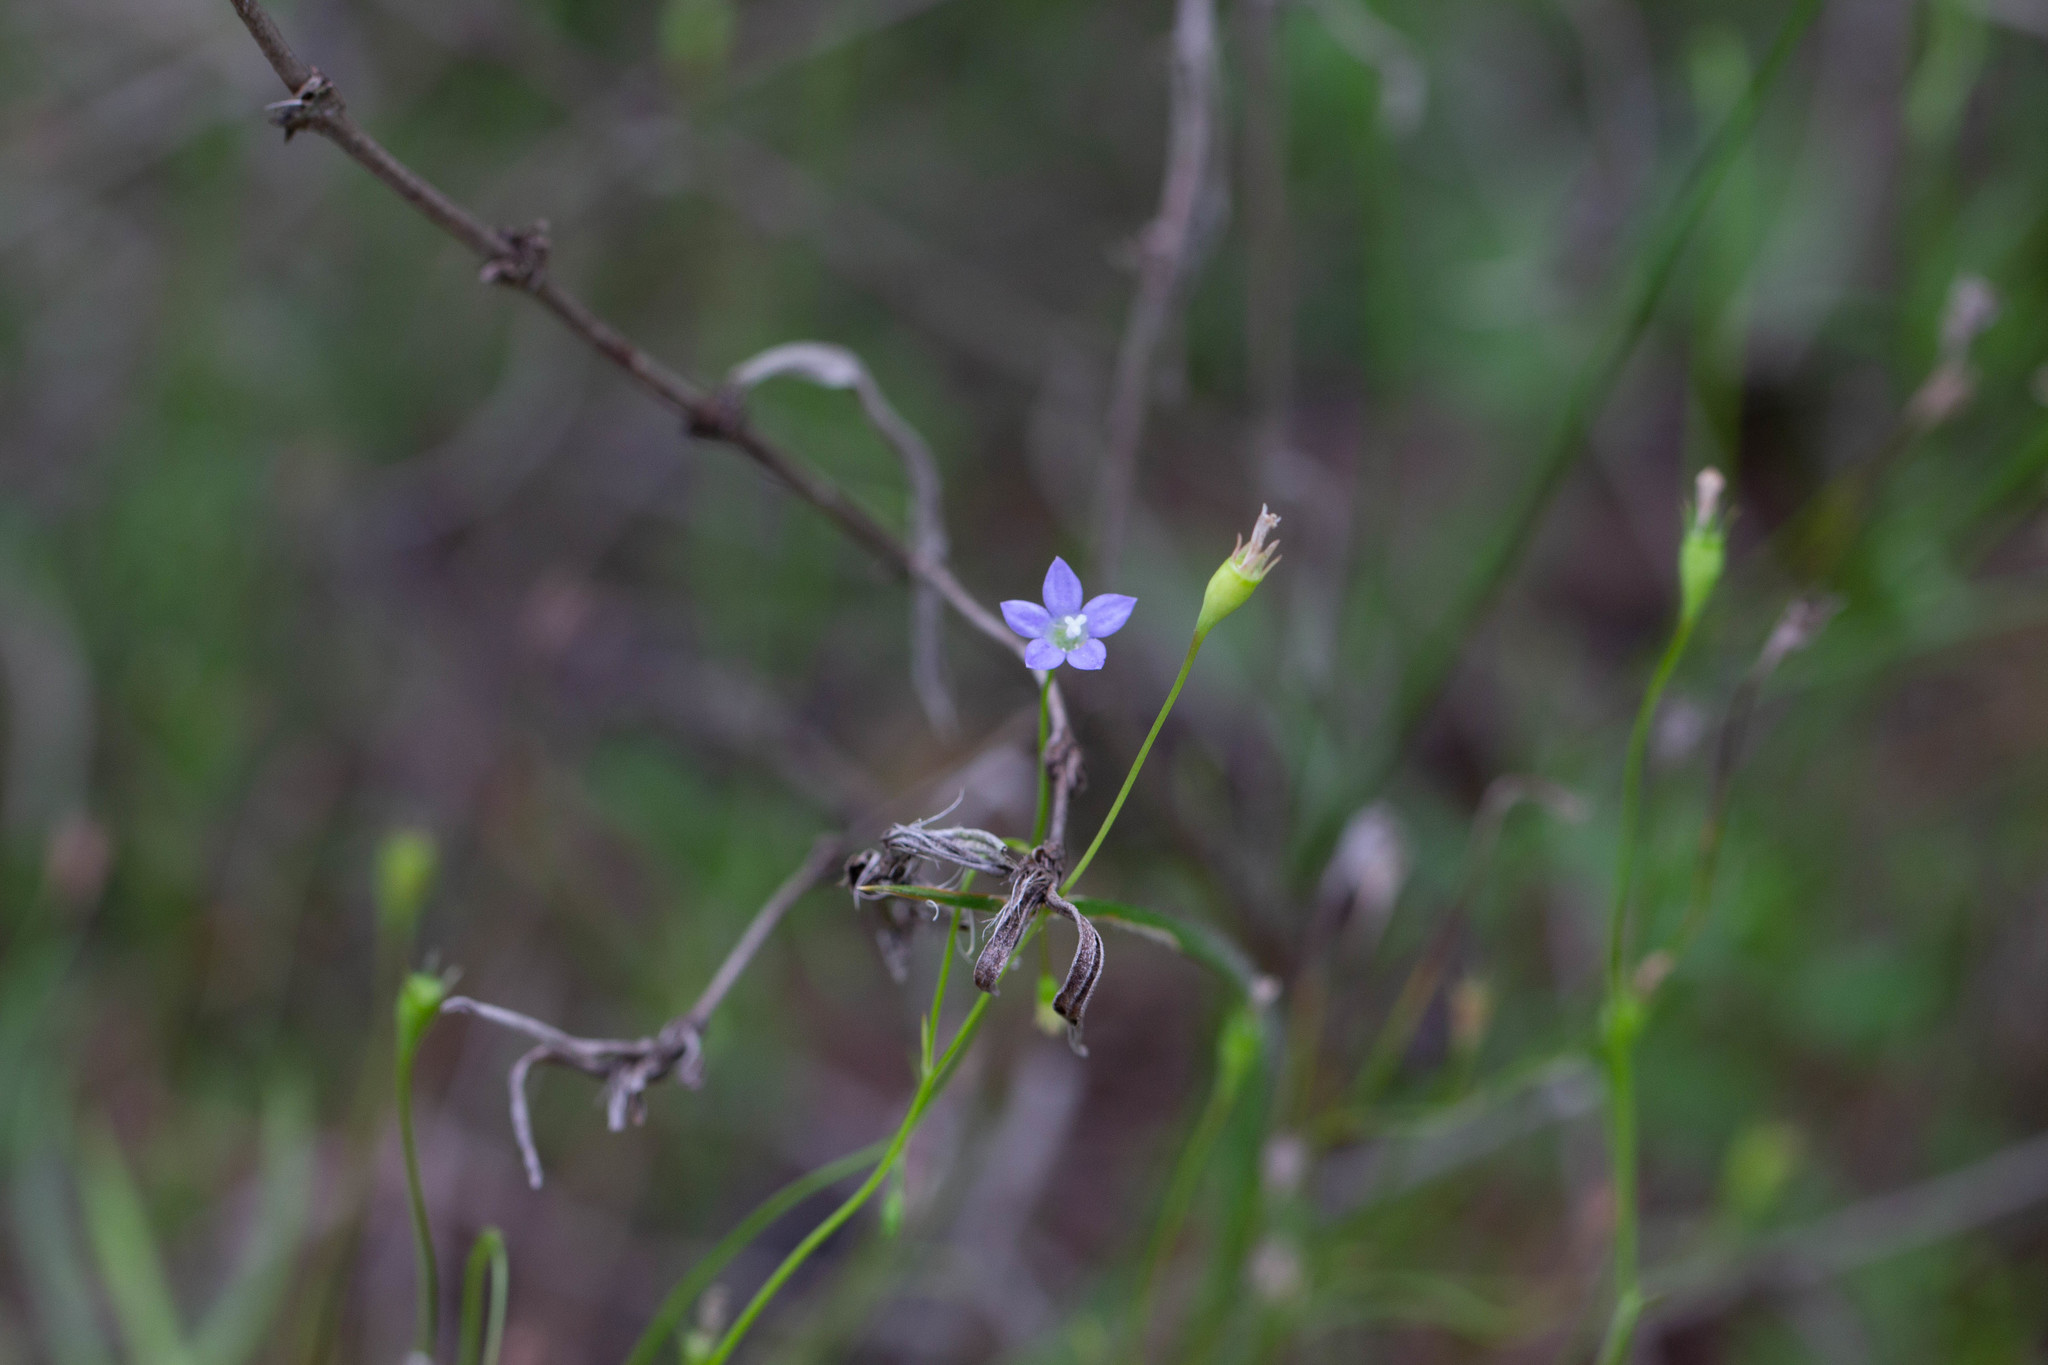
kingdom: Plantae
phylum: Tracheophyta
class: Magnoliopsida
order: Asterales
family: Campanulaceae
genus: Wahlenbergia
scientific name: Wahlenbergia marginata
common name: Southern rockbell
